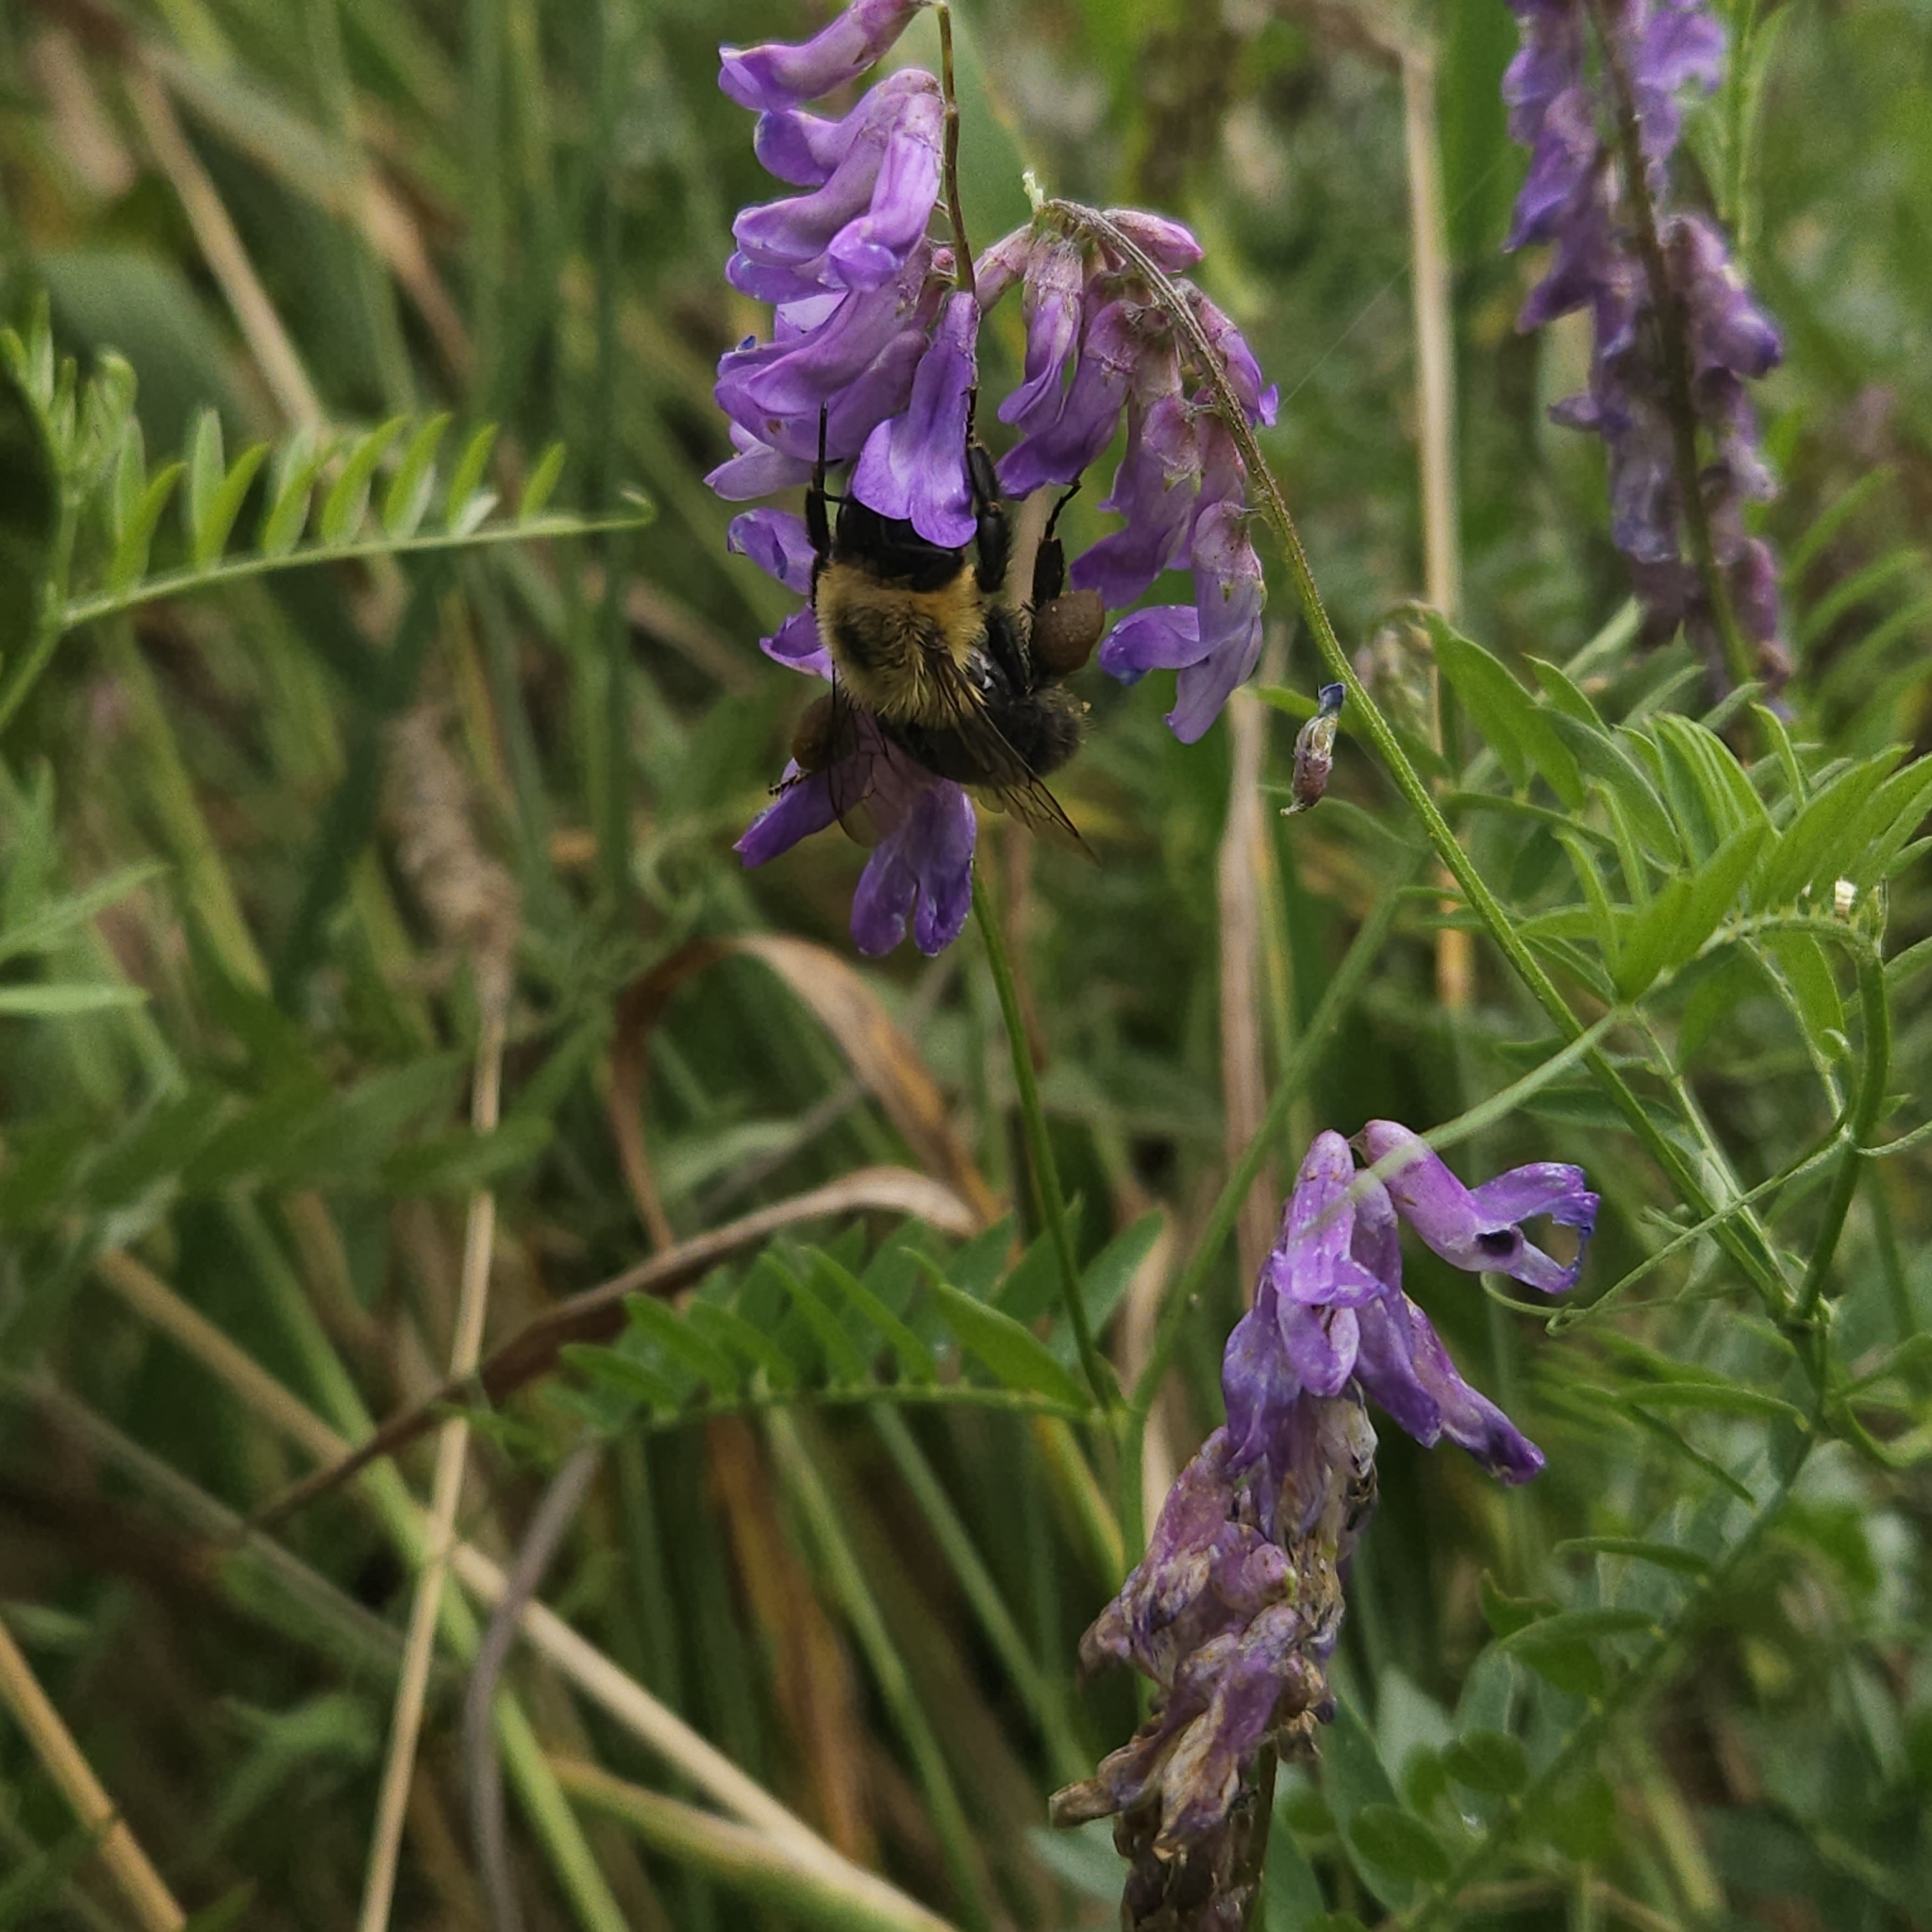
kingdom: Animalia
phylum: Arthropoda
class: Insecta
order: Hymenoptera
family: Apidae
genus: Bombus
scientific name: Bombus impatiens
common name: Common eastern bumble bee
